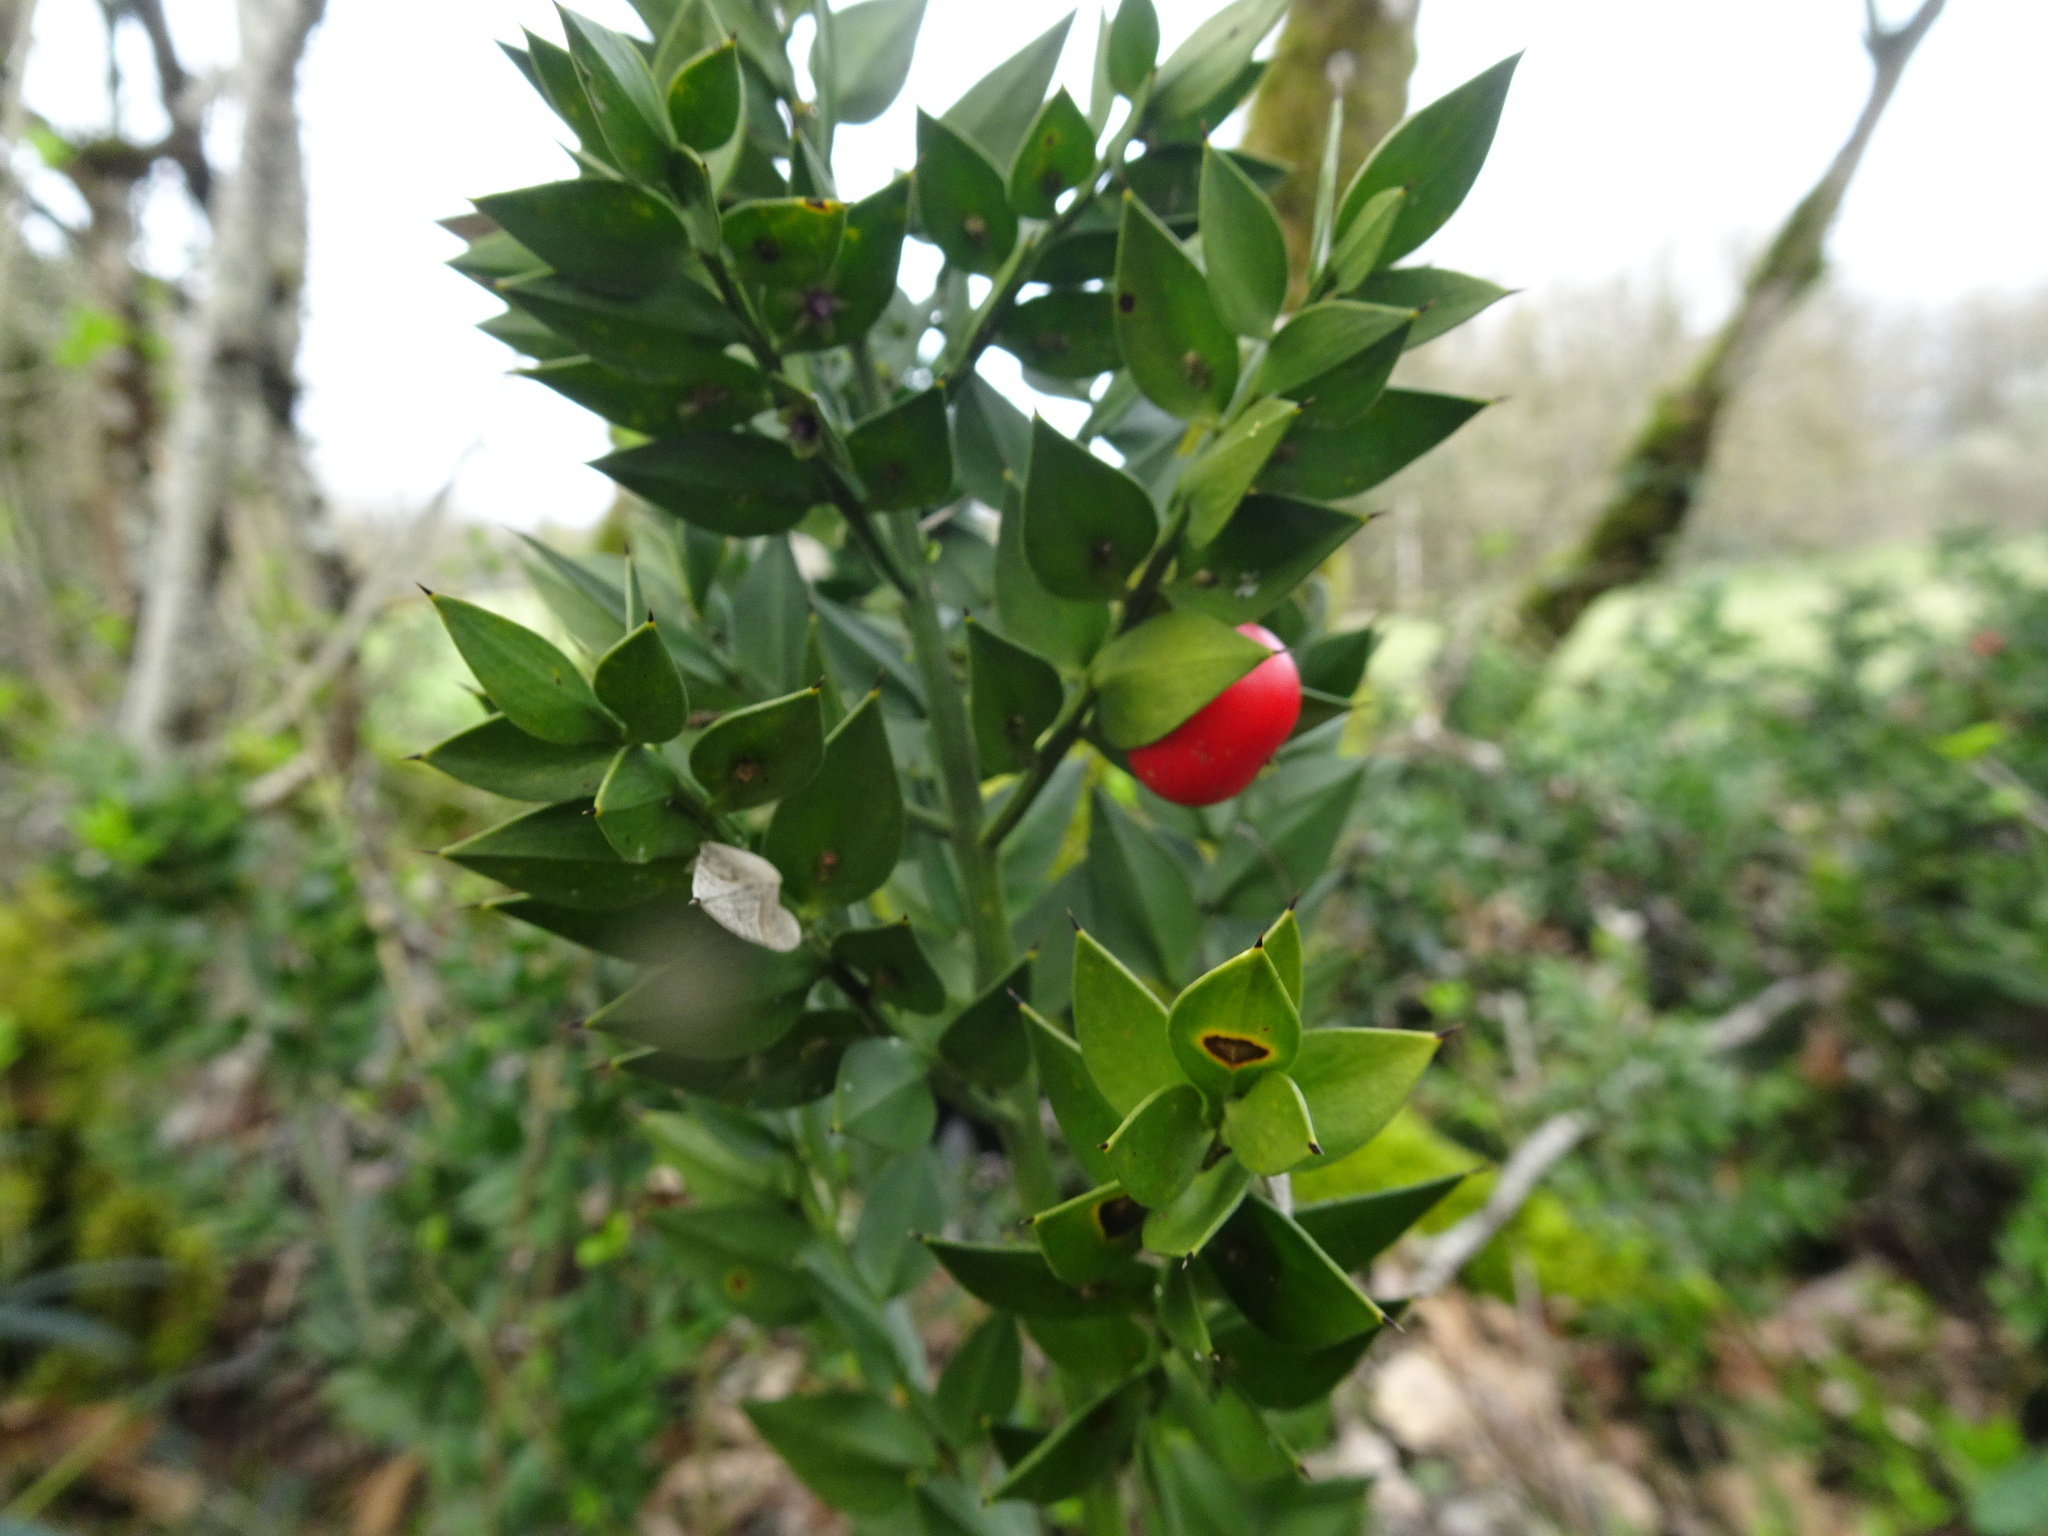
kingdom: Plantae
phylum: Tracheophyta
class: Liliopsida
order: Asparagales
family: Asparagaceae
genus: Ruscus
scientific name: Ruscus aculeatus
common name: Butcher's-broom
